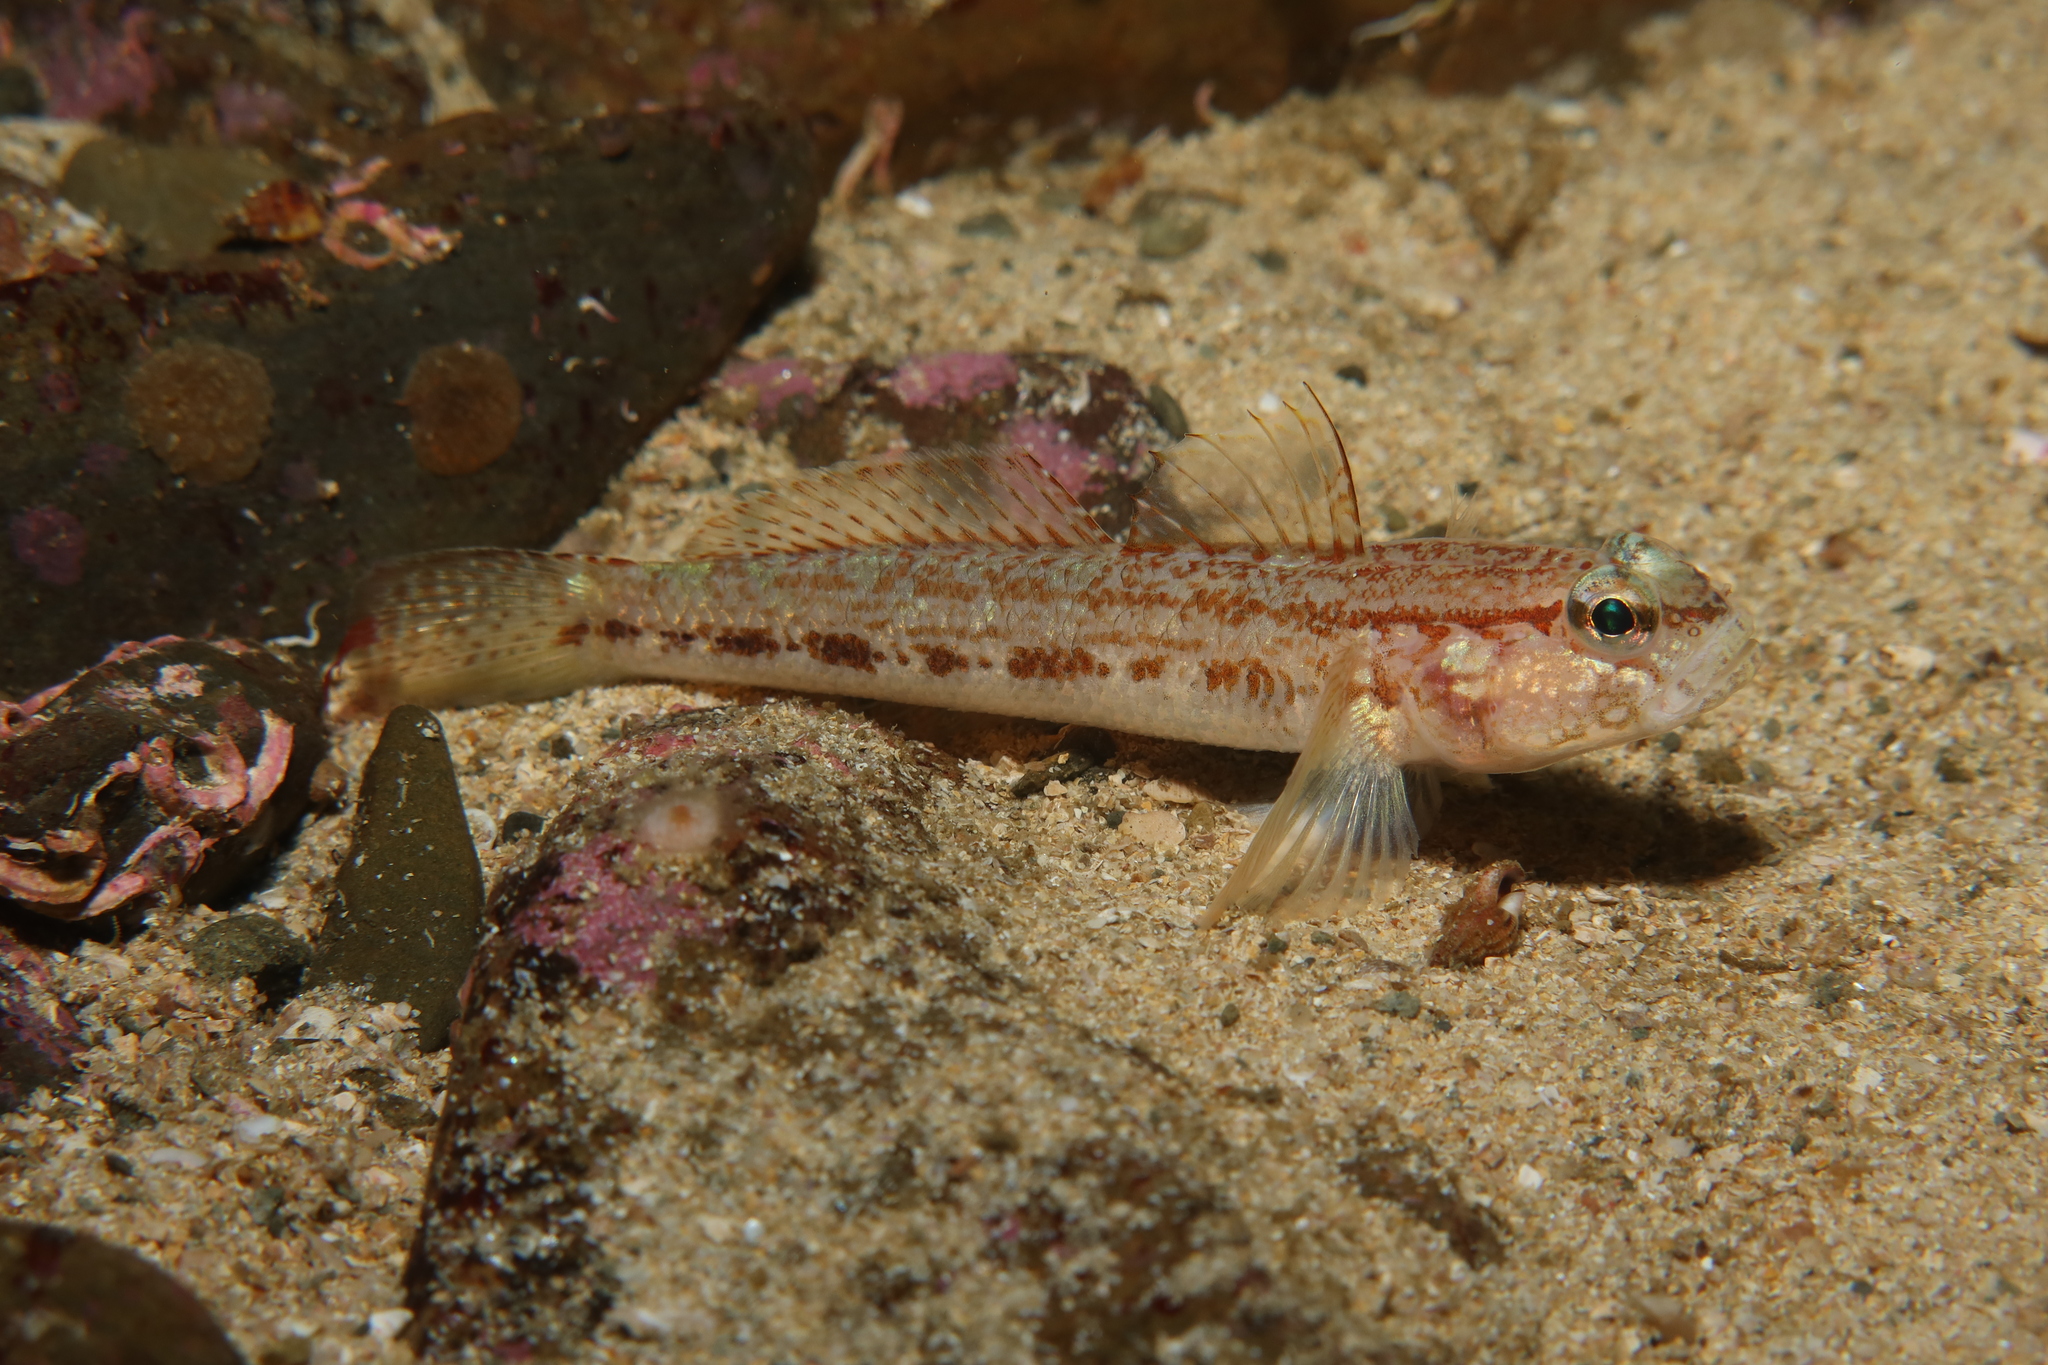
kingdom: Animalia
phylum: Chordata
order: Perciformes
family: Gobiidae
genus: Gobius
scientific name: Gobius gasteveni
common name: Steven's goby
